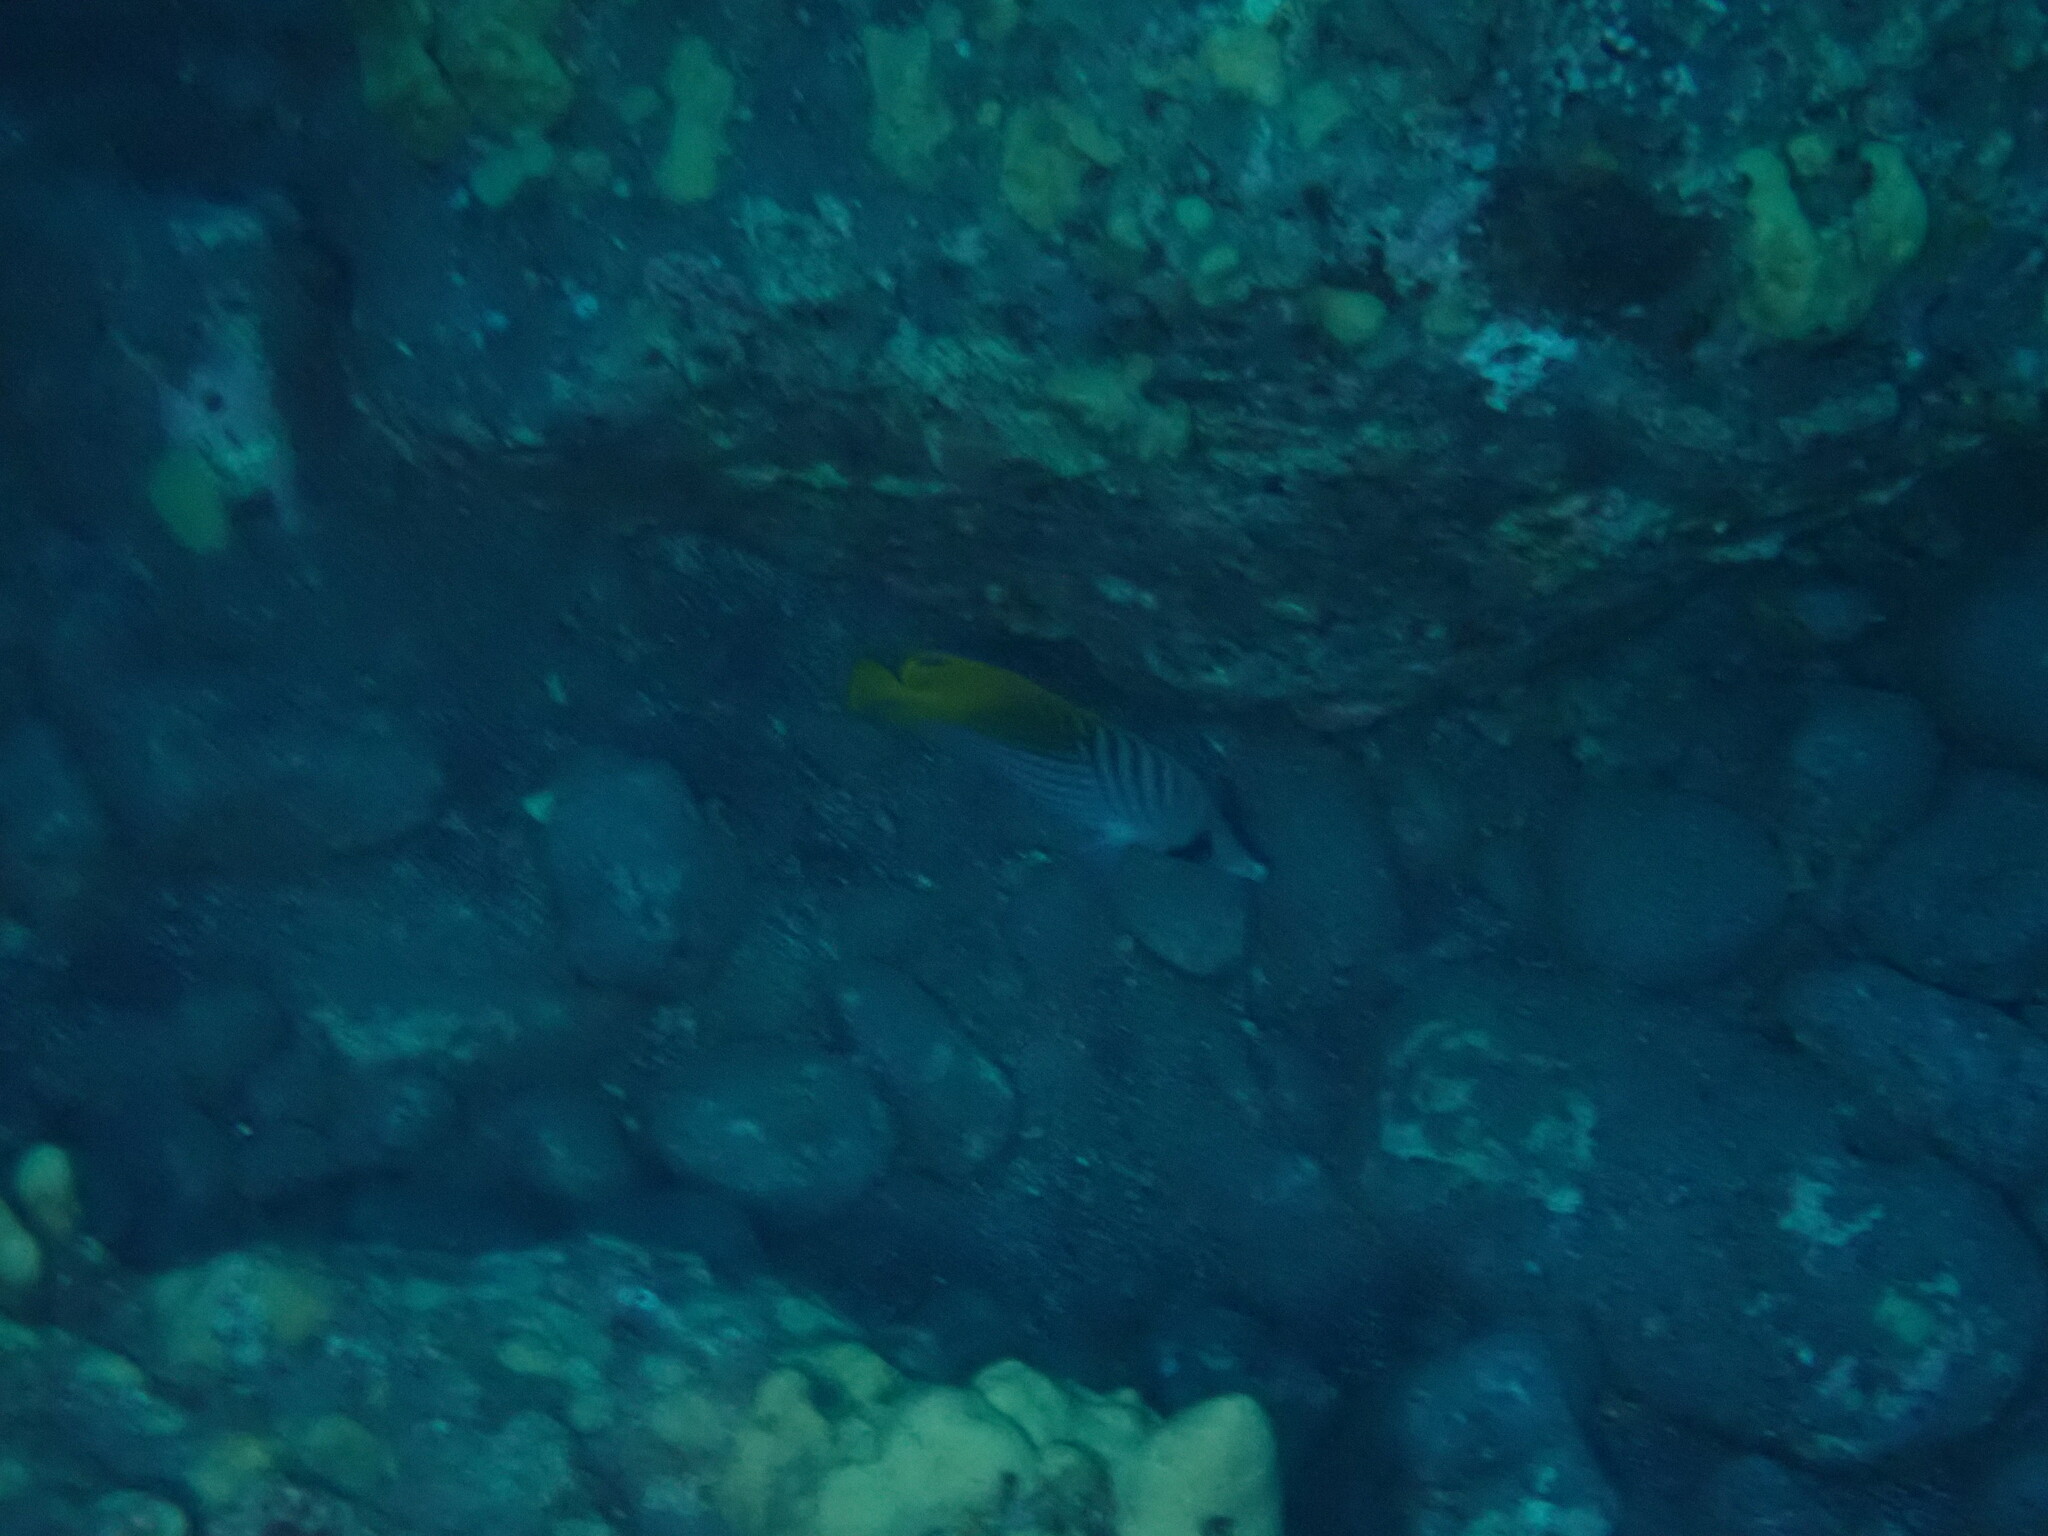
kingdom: Animalia
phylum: Chordata
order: Perciformes
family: Chaetodontidae
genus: Chaetodon
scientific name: Chaetodon auriga
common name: Threadfin butterflyfish
